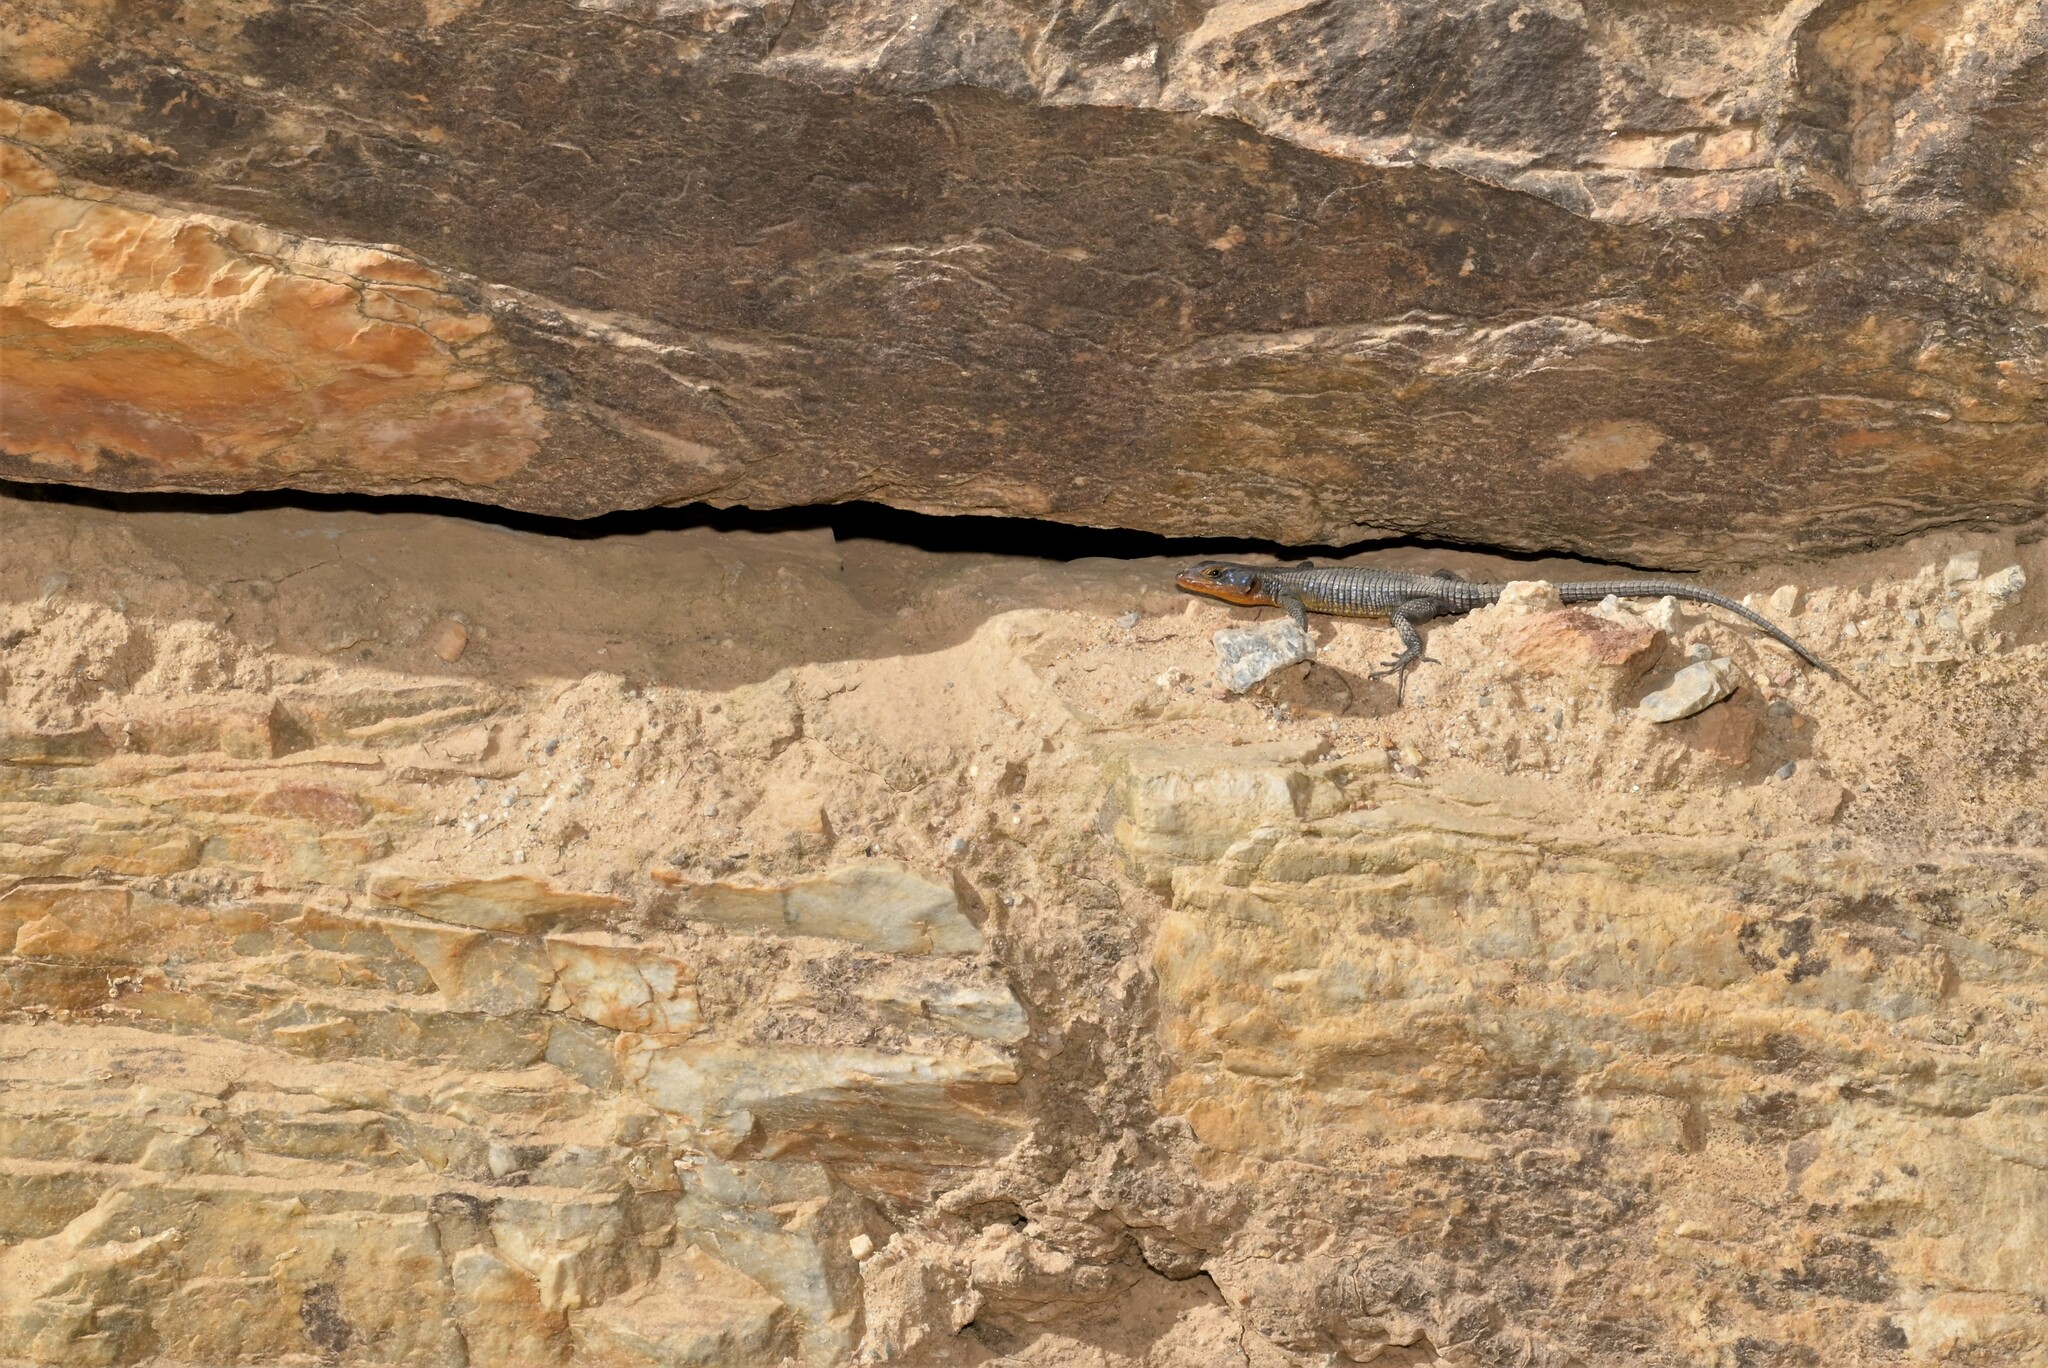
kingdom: Animalia
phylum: Chordata
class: Squamata
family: Cordylidae
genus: Ninurta
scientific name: Ninurta coeruleopunctatus
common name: Blue-spotted girdled lizard
